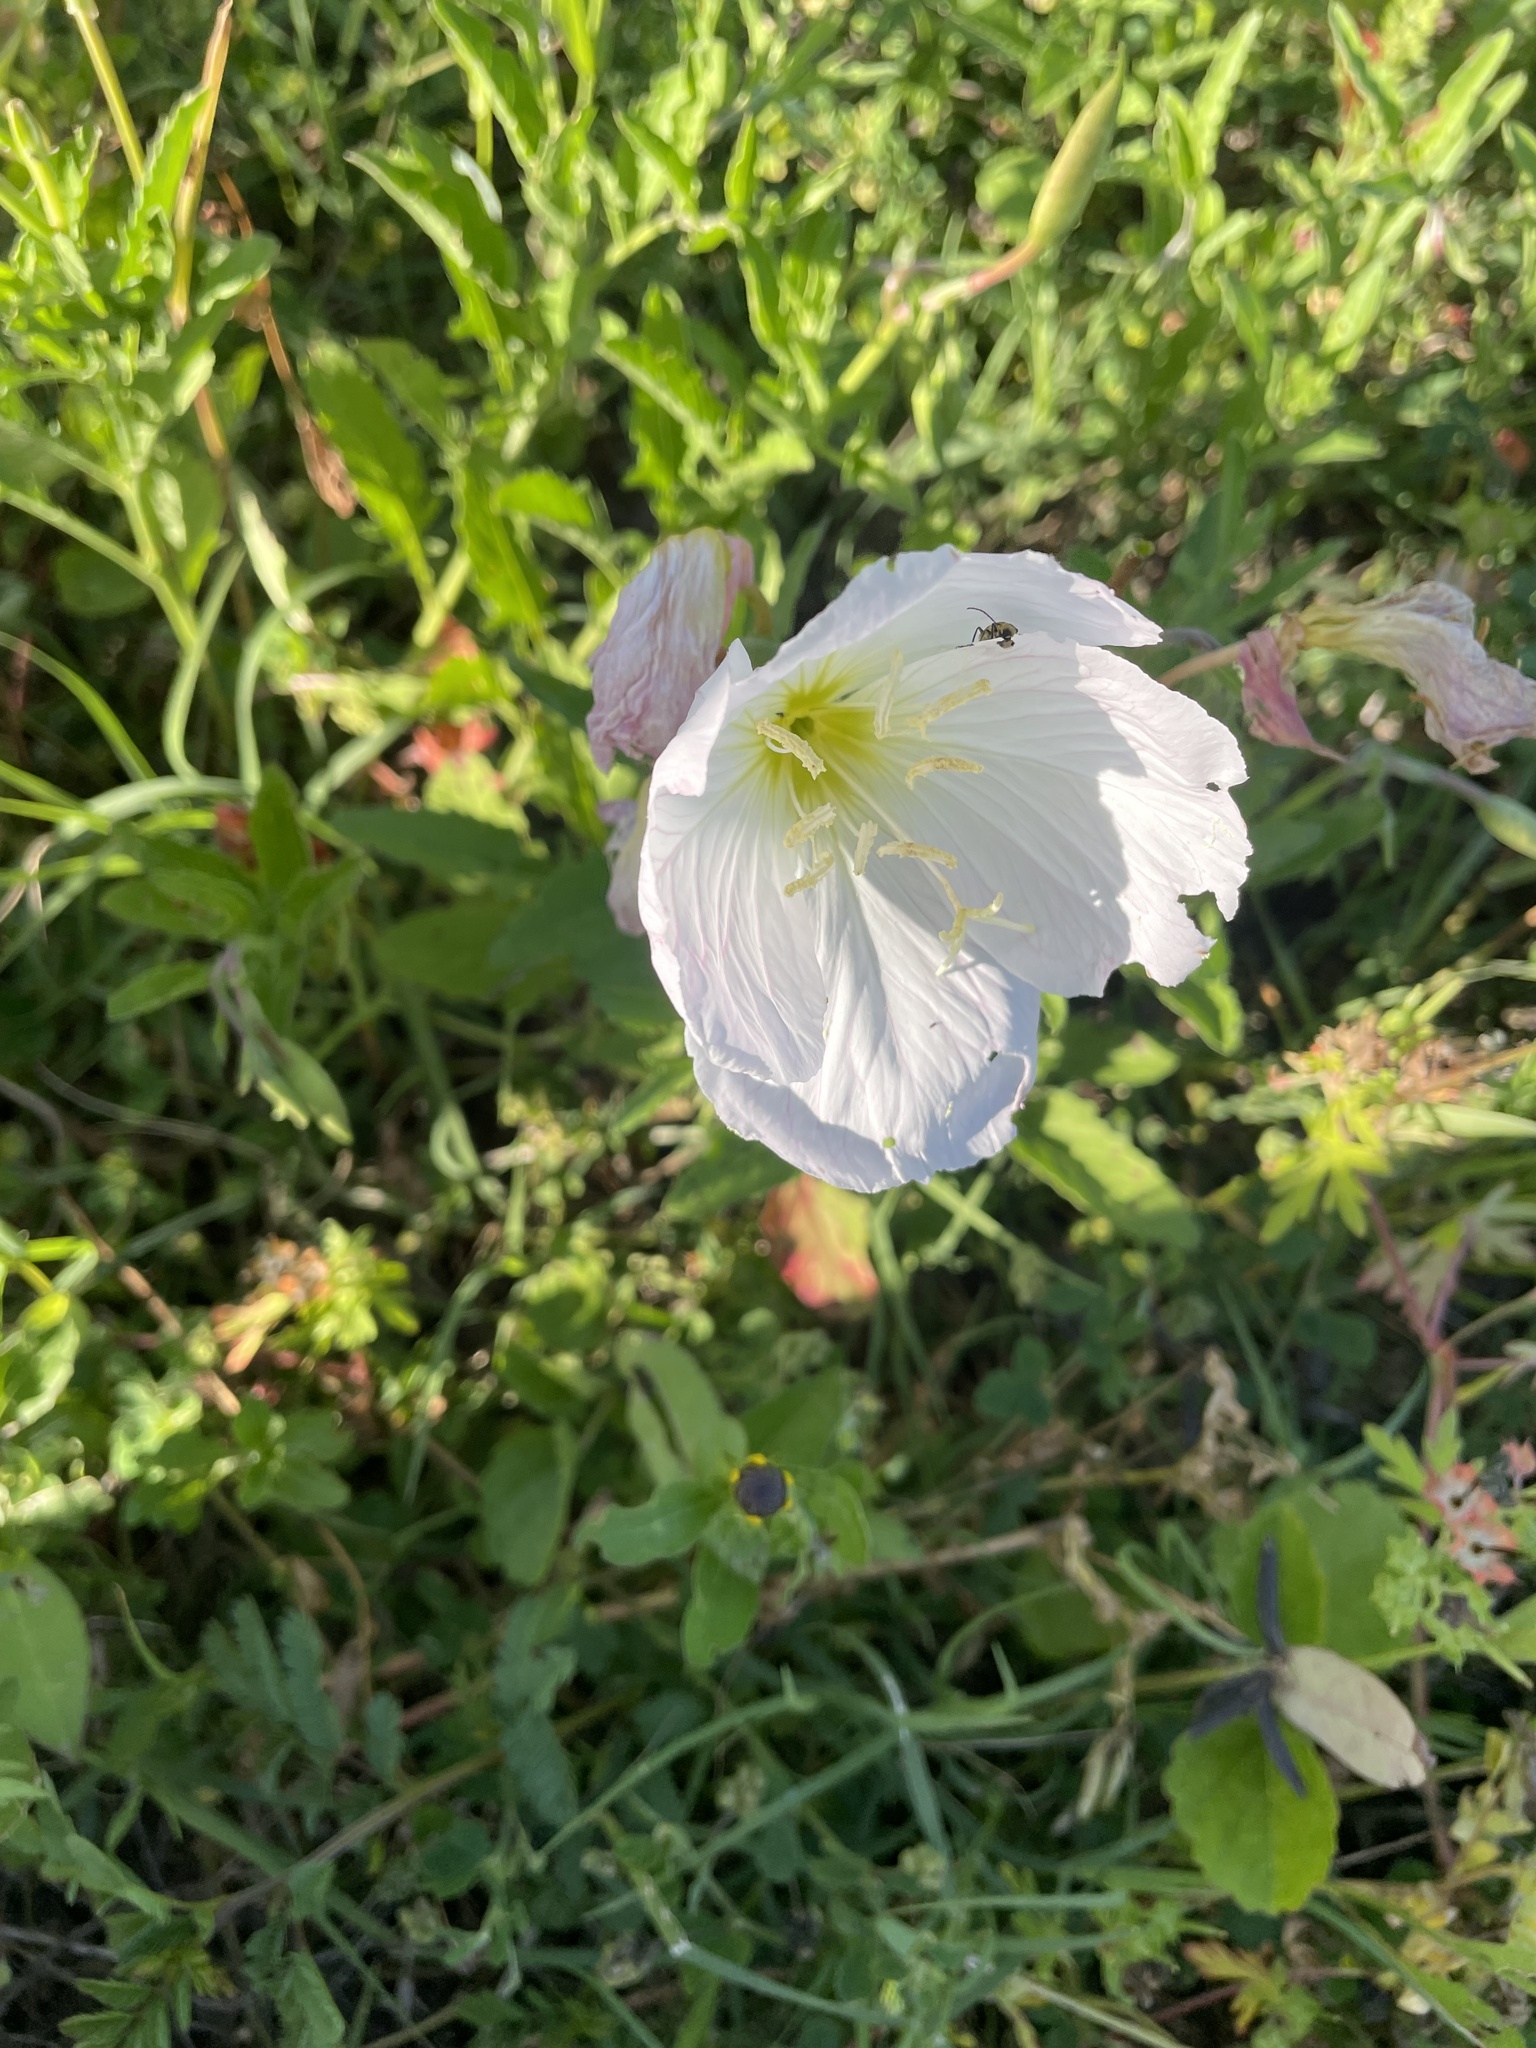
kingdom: Plantae
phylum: Tracheophyta
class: Magnoliopsida
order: Myrtales
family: Onagraceae
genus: Oenothera
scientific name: Oenothera speciosa
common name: White evening-primrose
